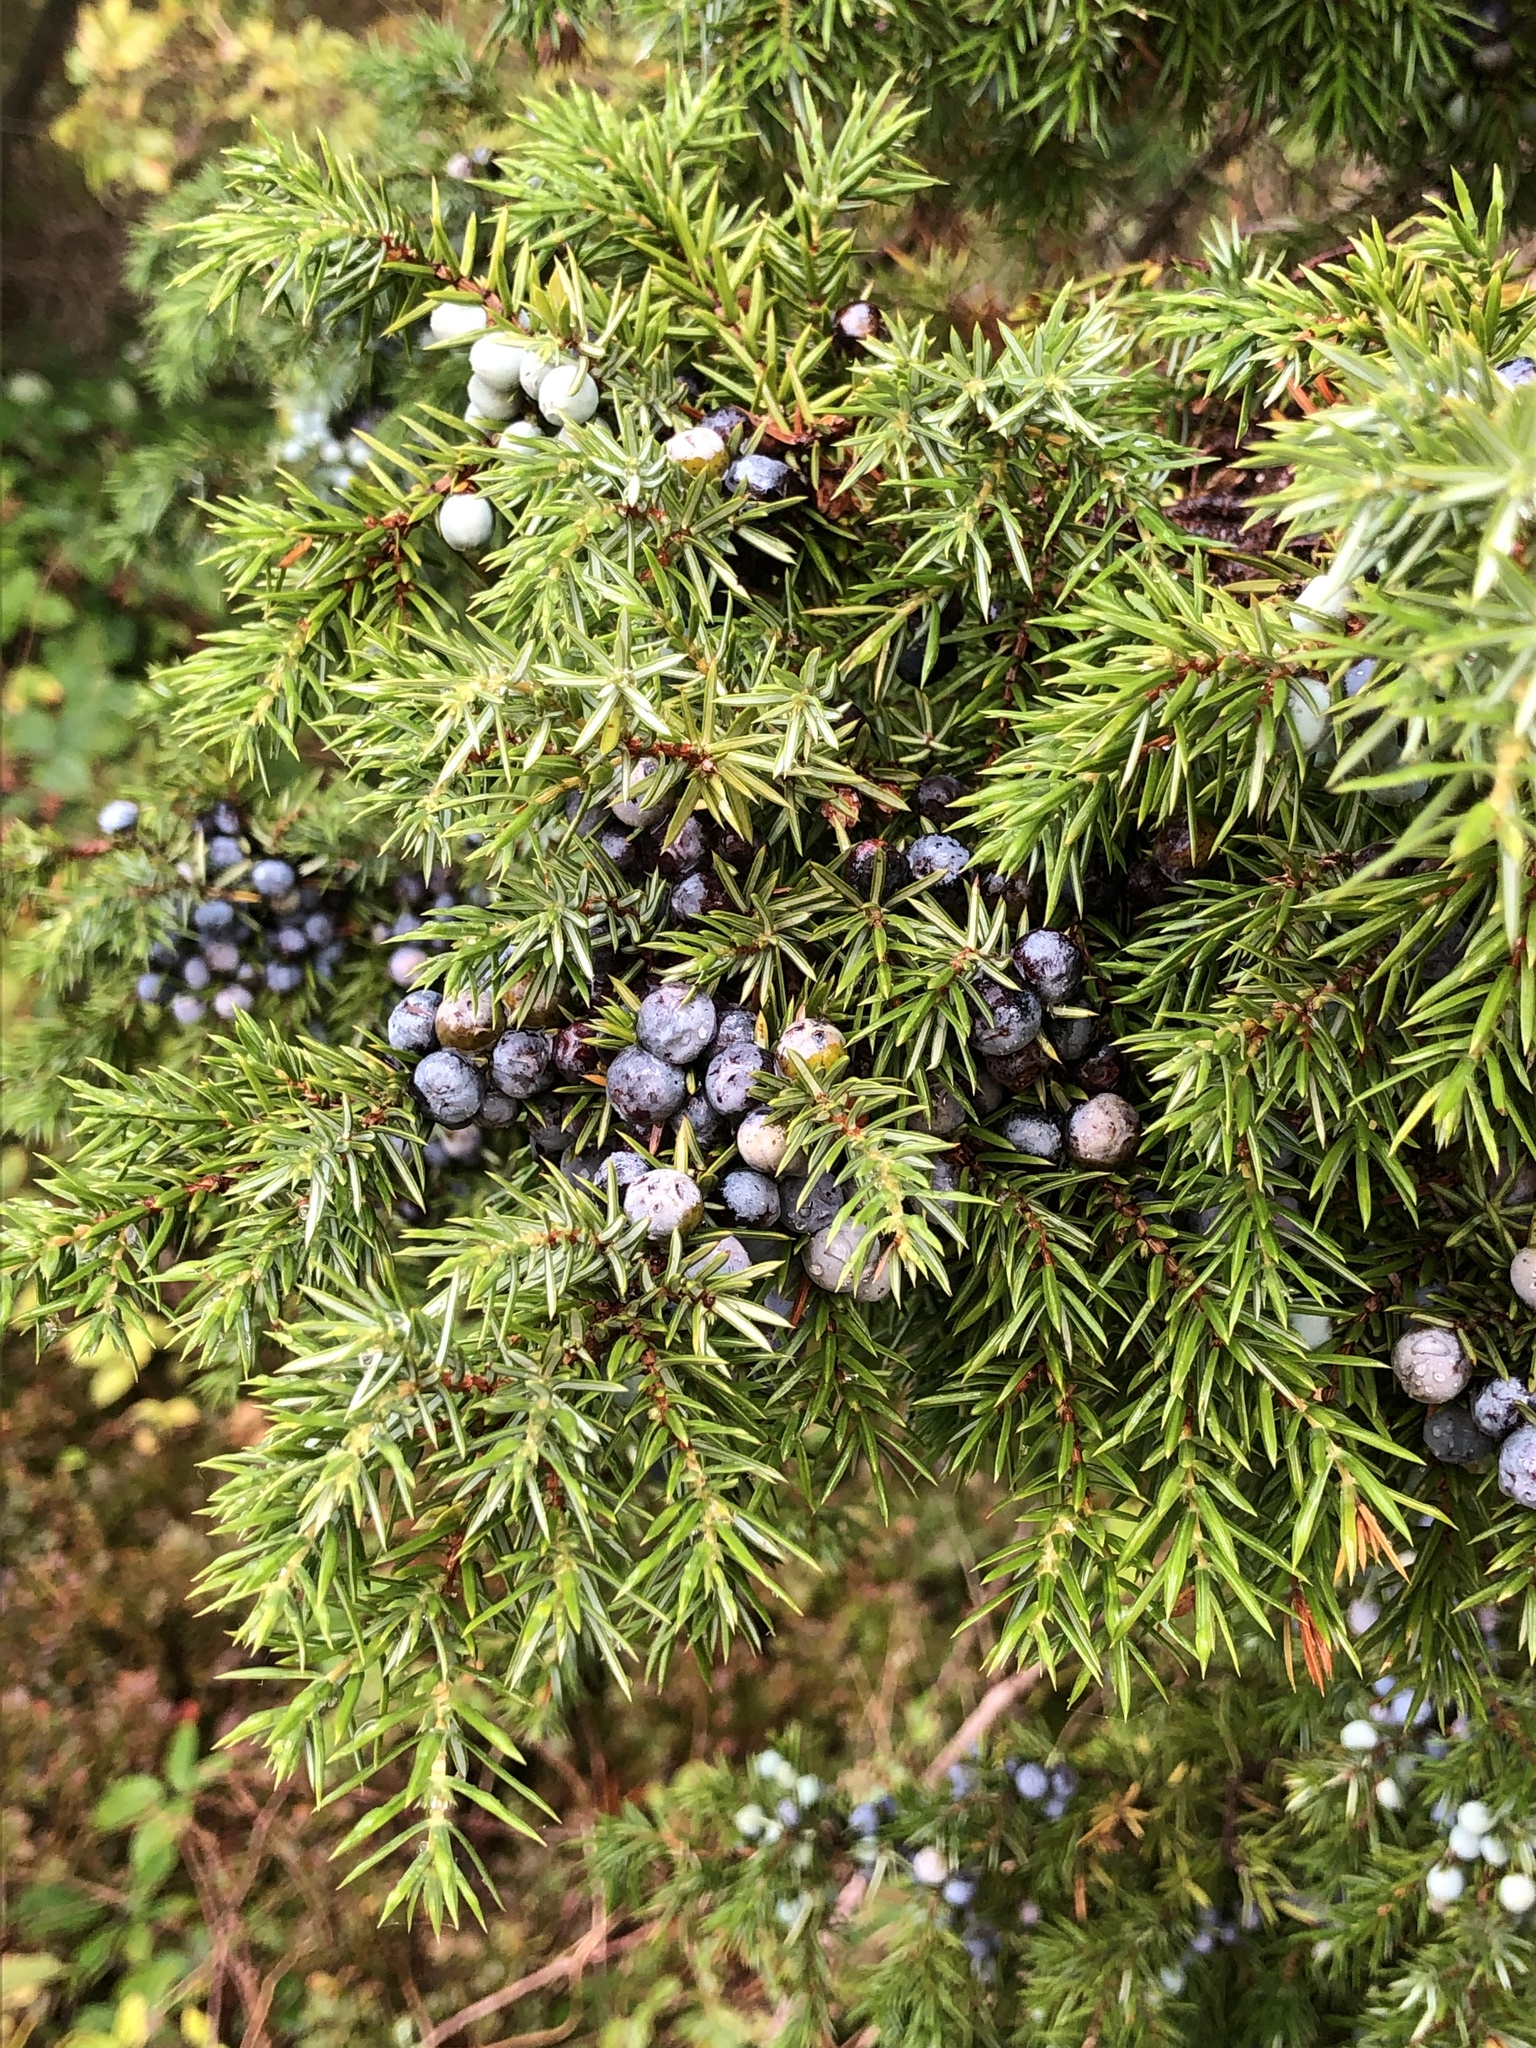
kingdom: Plantae
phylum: Tracheophyta
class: Pinopsida
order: Pinales
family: Cupressaceae
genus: Juniperus
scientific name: Juniperus communis
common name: Common juniper
